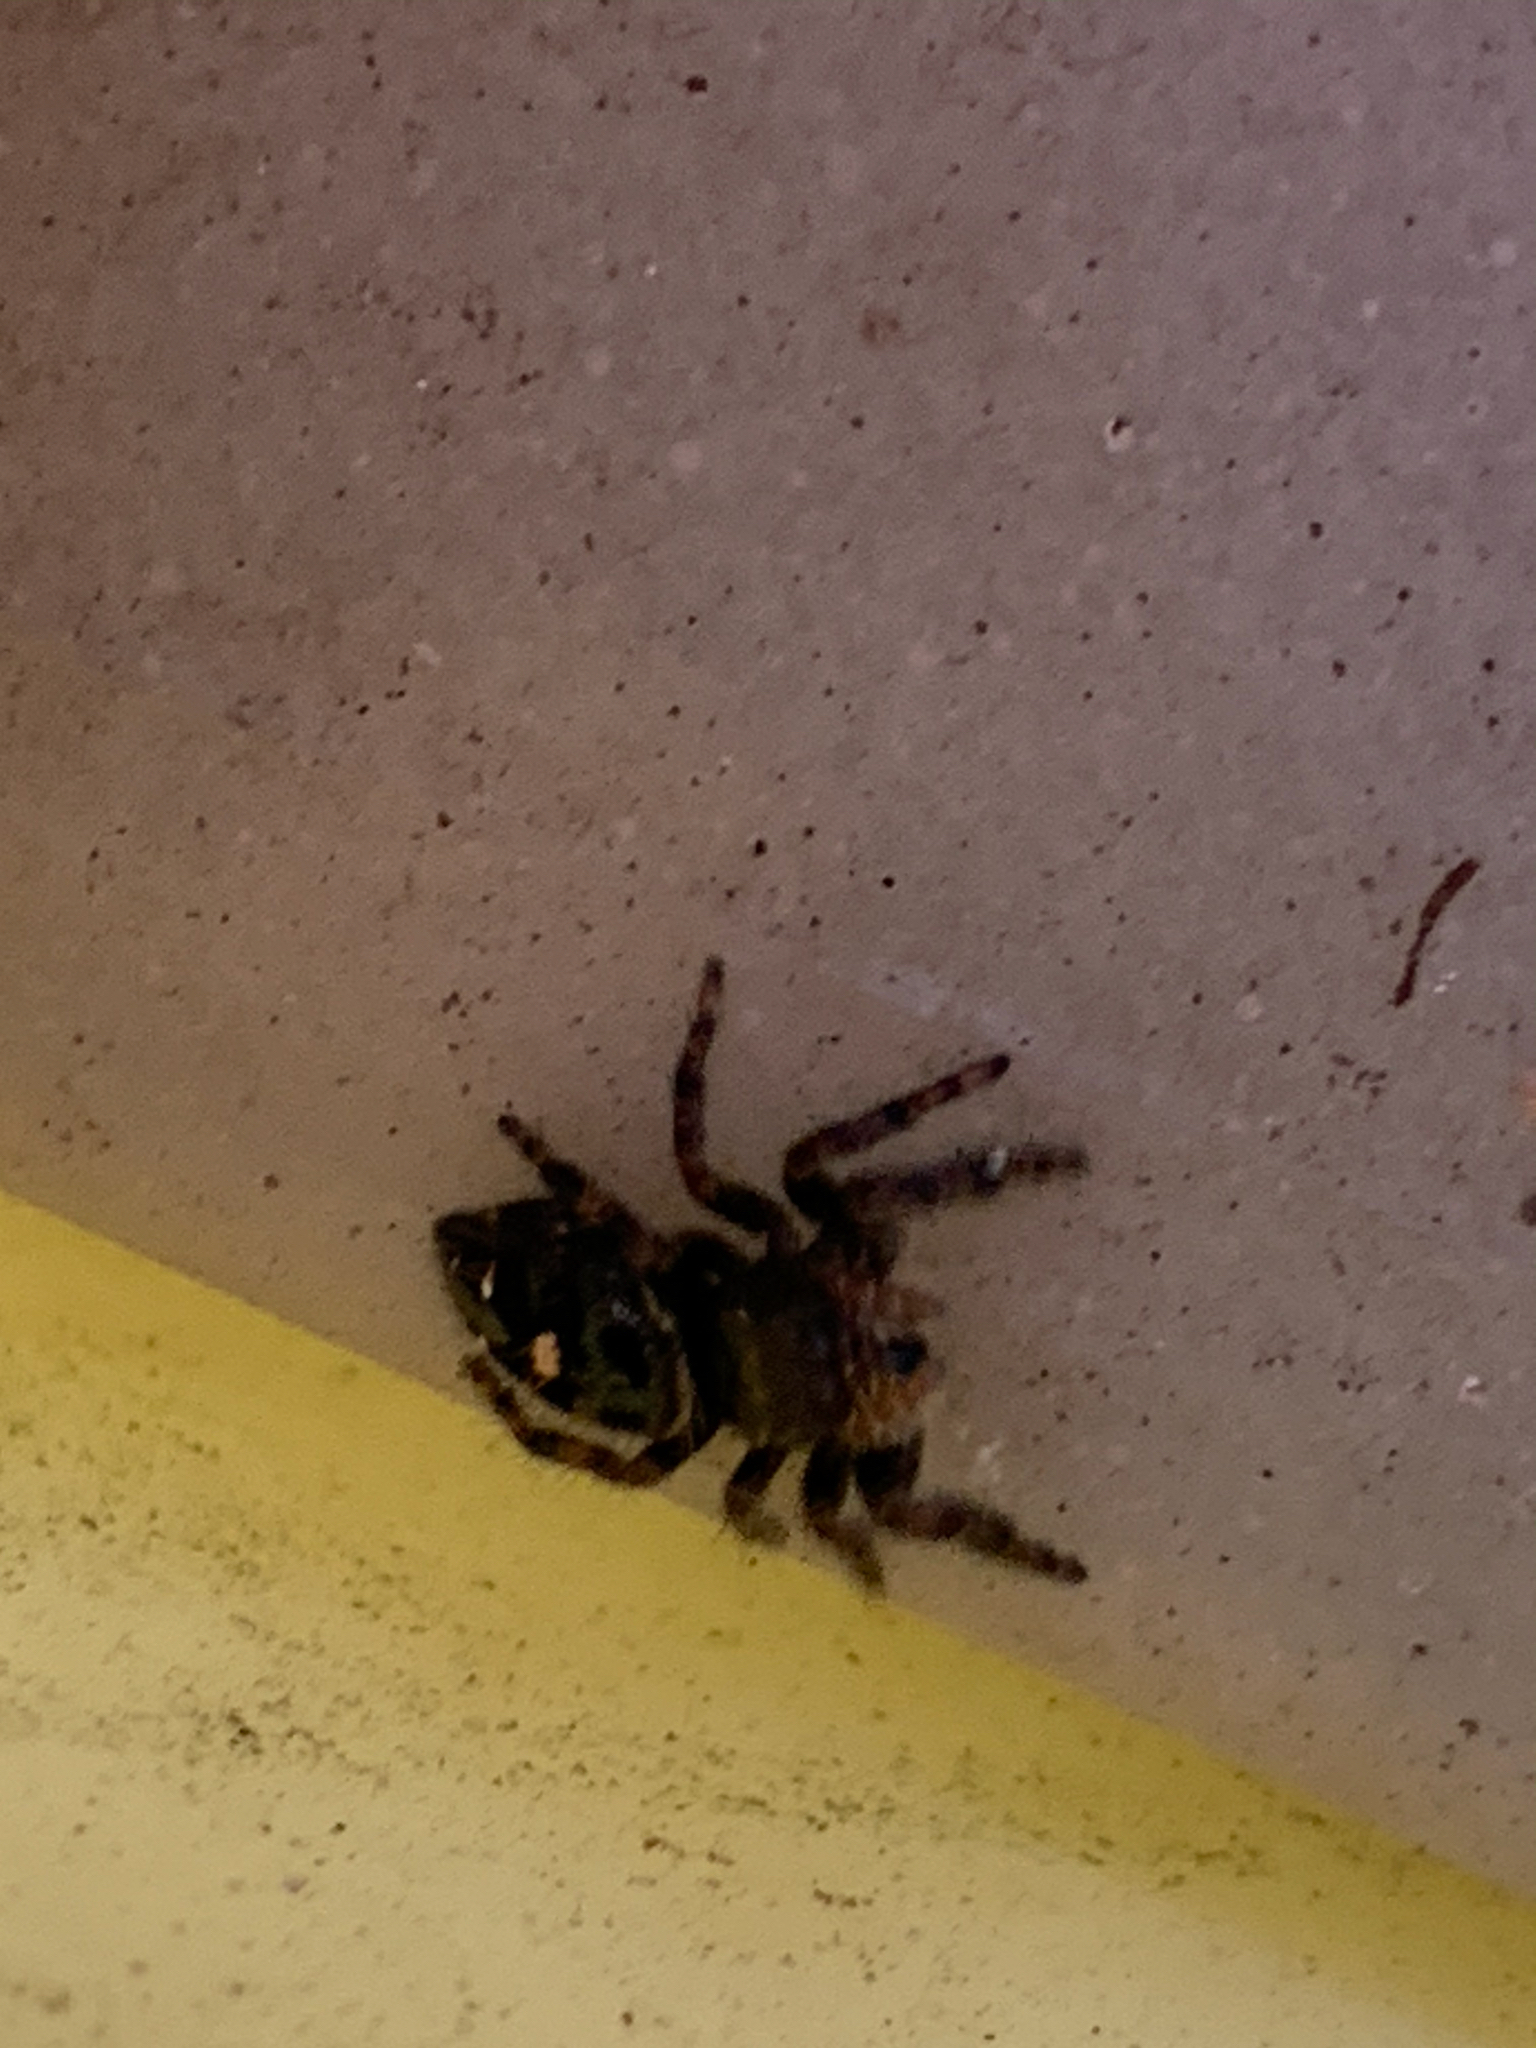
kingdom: Animalia
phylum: Arthropoda
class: Arachnida
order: Araneae
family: Salticidae
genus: Phidippus
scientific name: Phidippus audax
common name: Bold jumper
